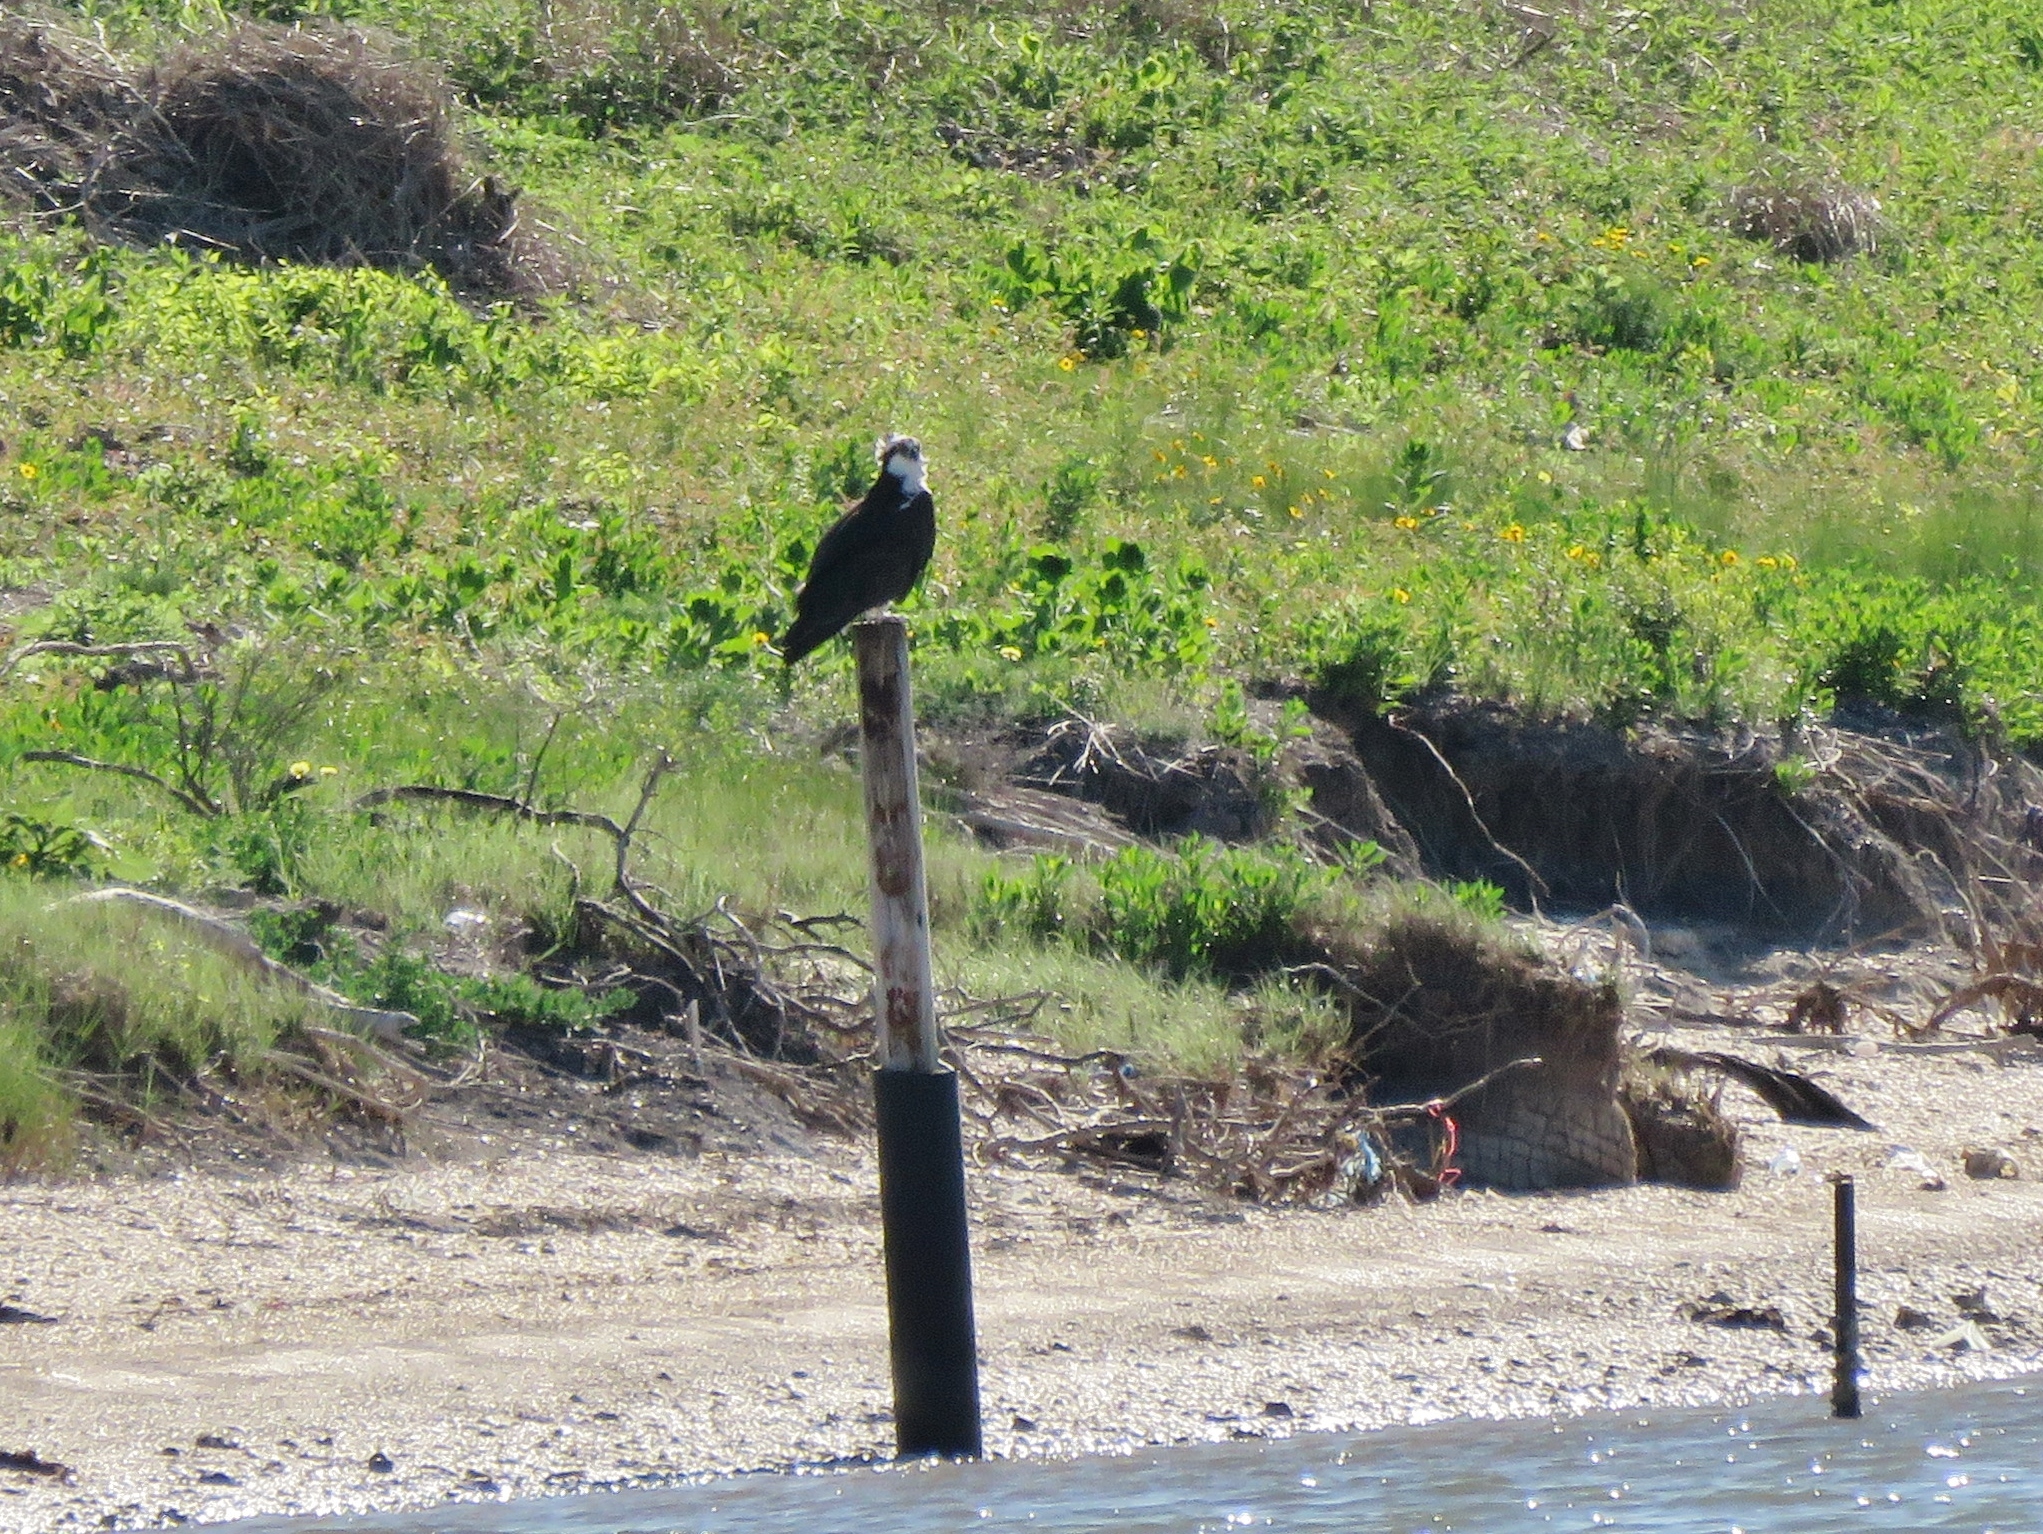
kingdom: Animalia
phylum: Chordata
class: Aves
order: Accipitriformes
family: Pandionidae
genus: Pandion
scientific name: Pandion haliaetus
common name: Osprey
